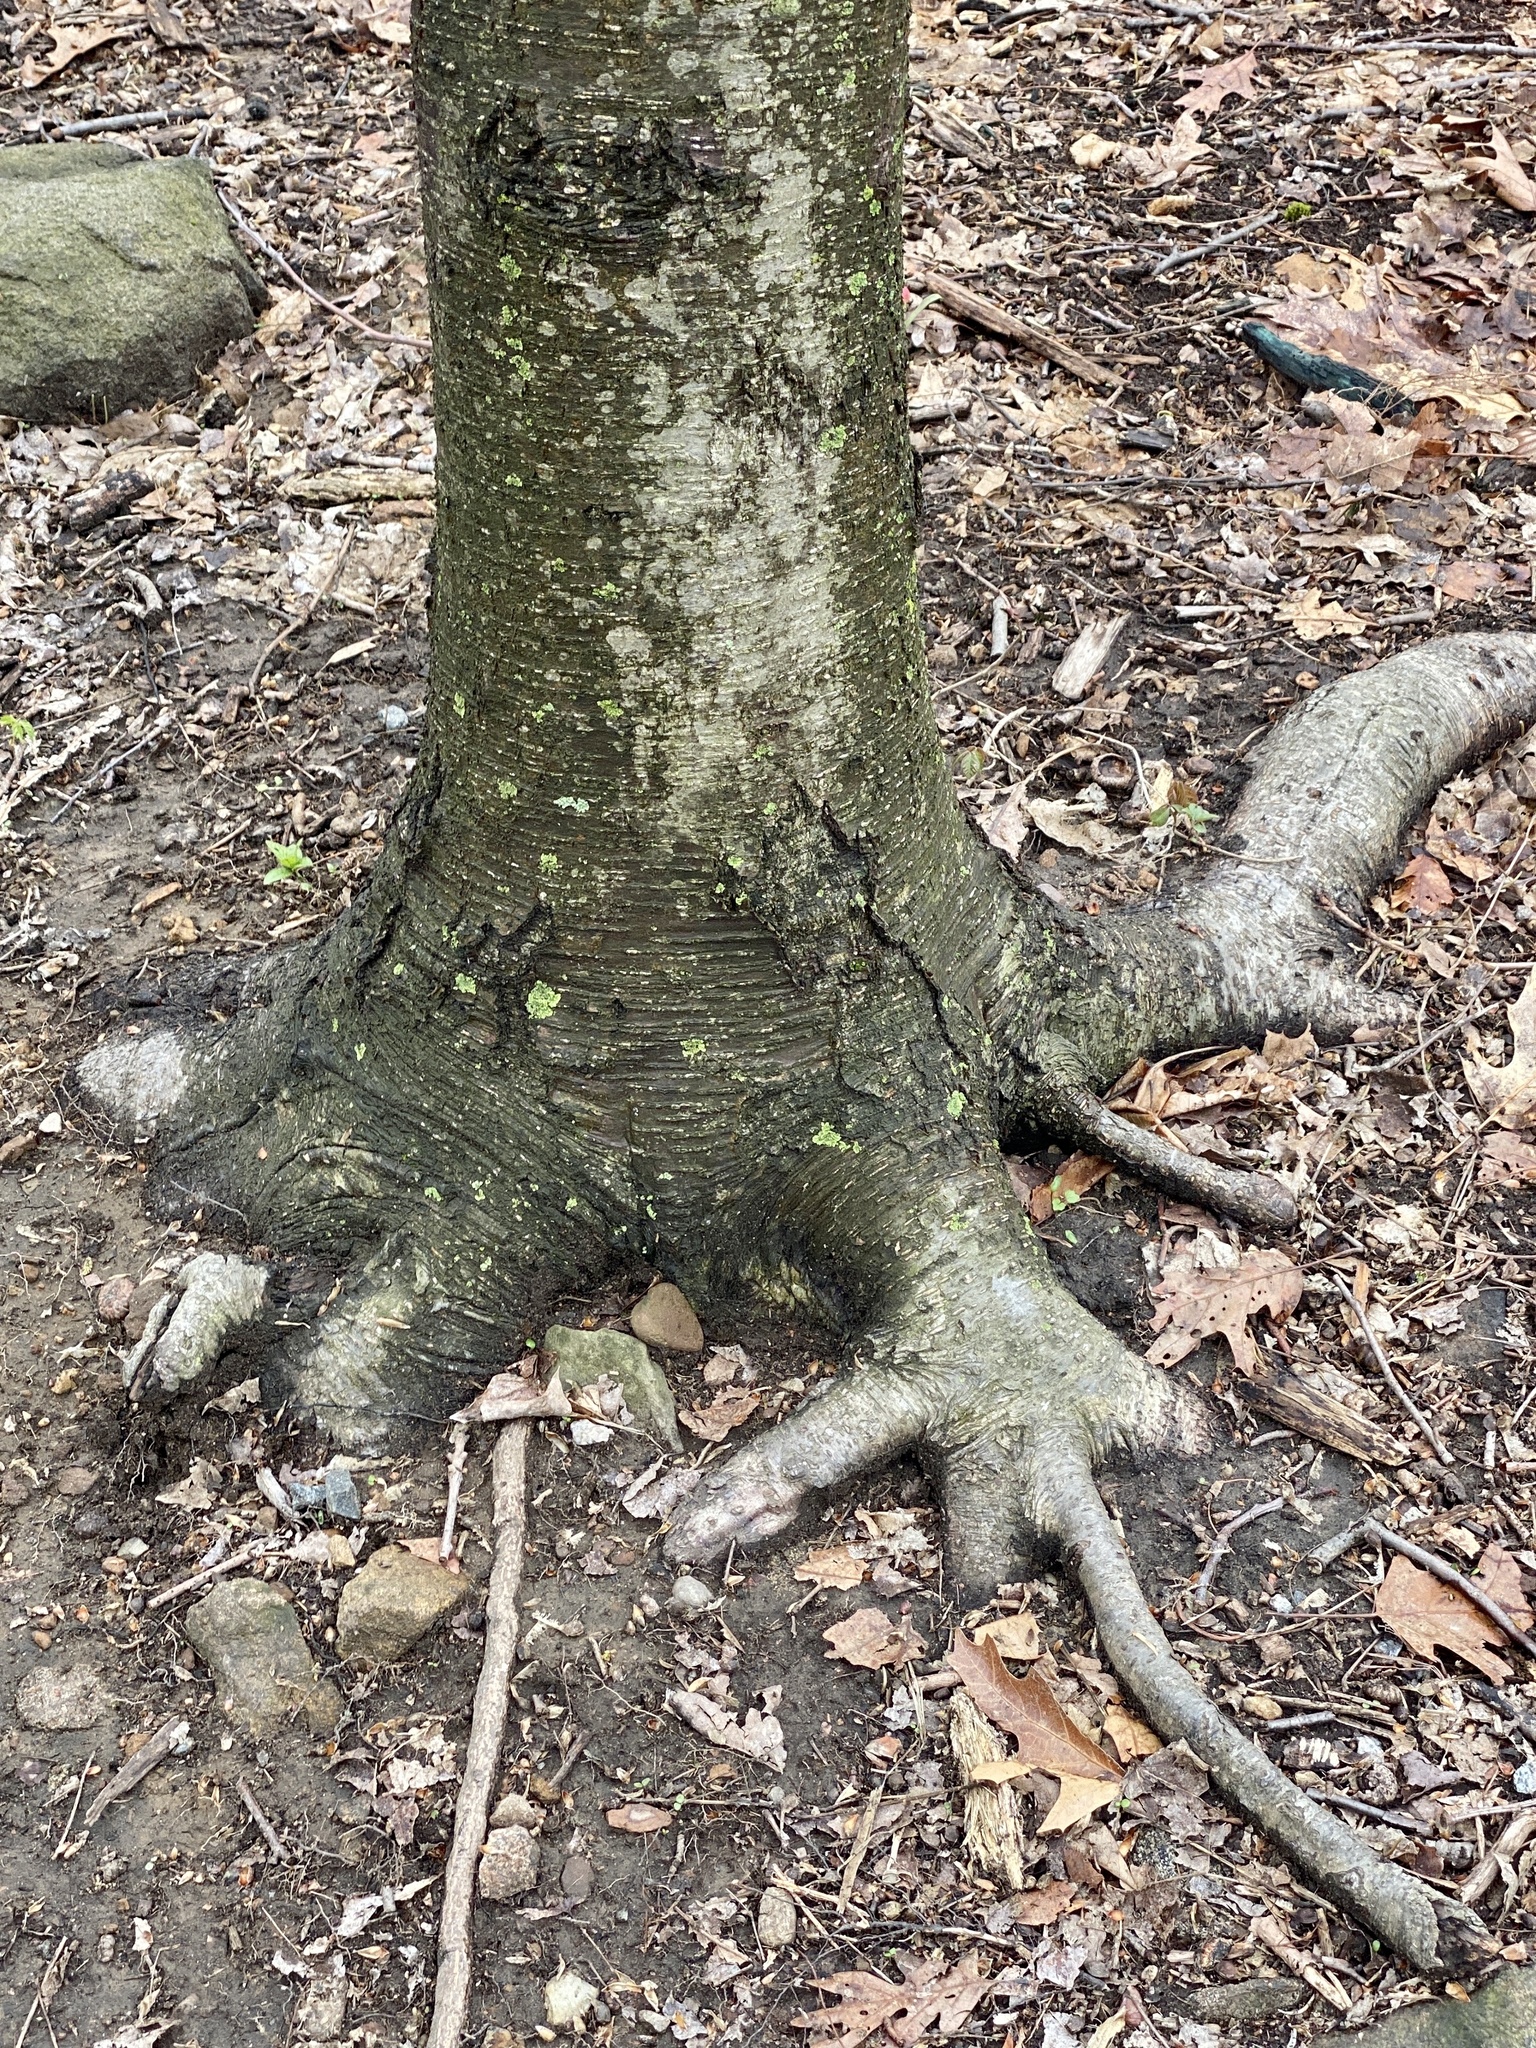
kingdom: Plantae
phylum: Tracheophyta
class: Magnoliopsida
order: Fagales
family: Betulaceae
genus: Betula
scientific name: Betula lenta
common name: Black birch
